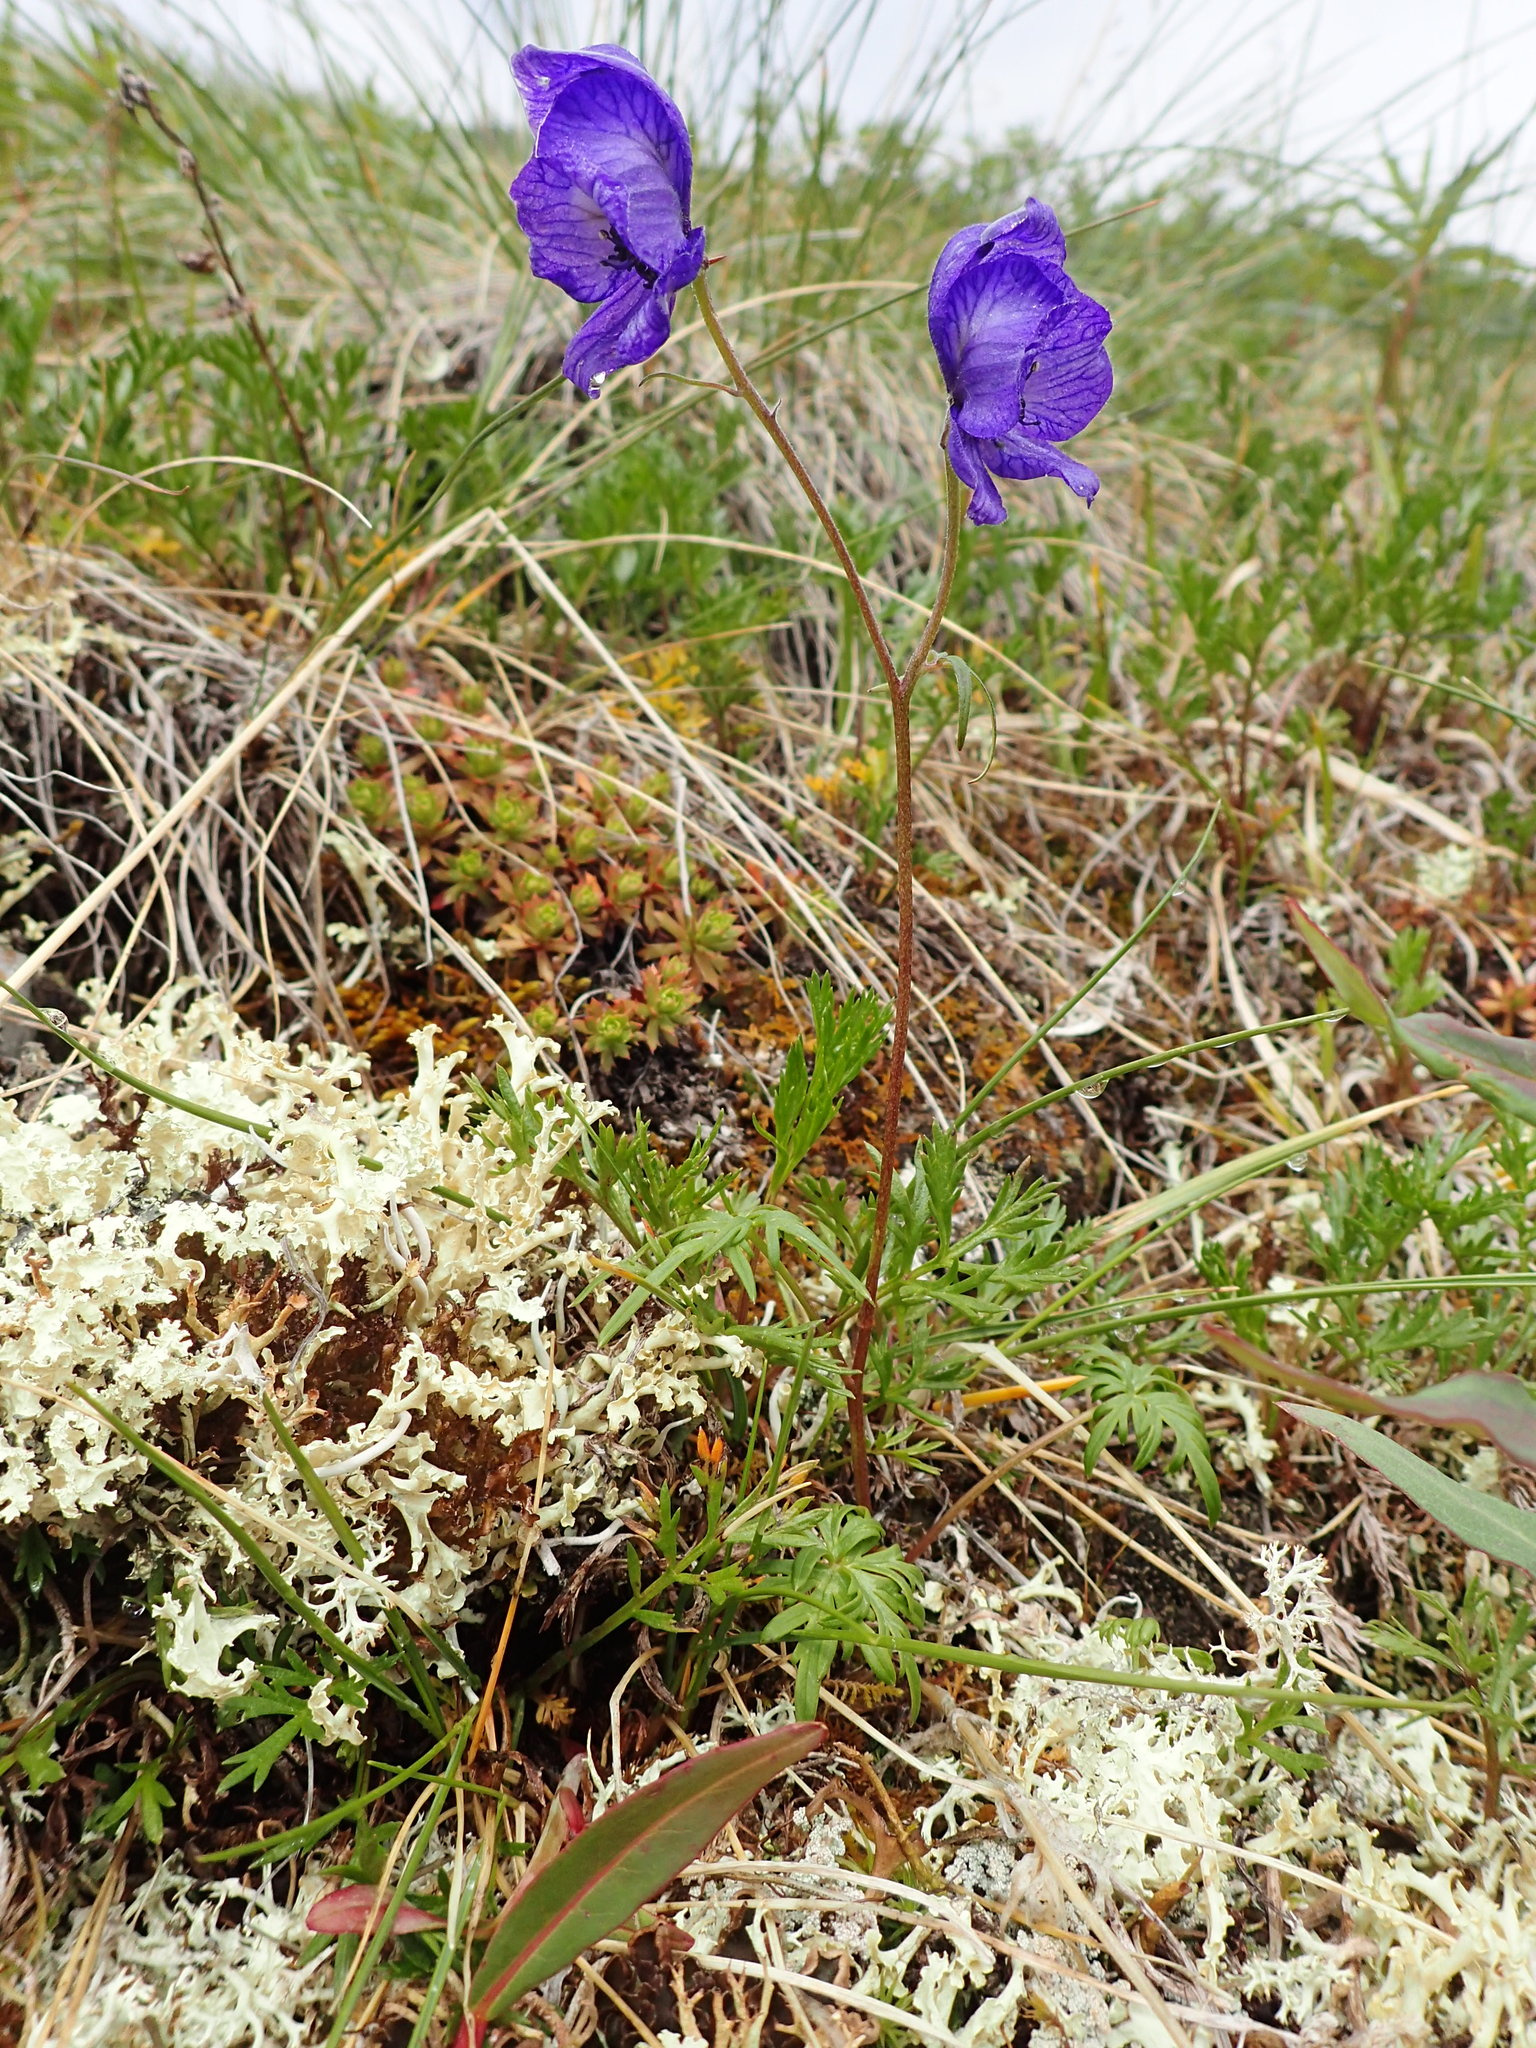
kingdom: Plantae
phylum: Tracheophyta
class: Magnoliopsida
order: Ranunculales
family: Ranunculaceae
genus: Aconitum
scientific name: Aconitum delphiniifolium
